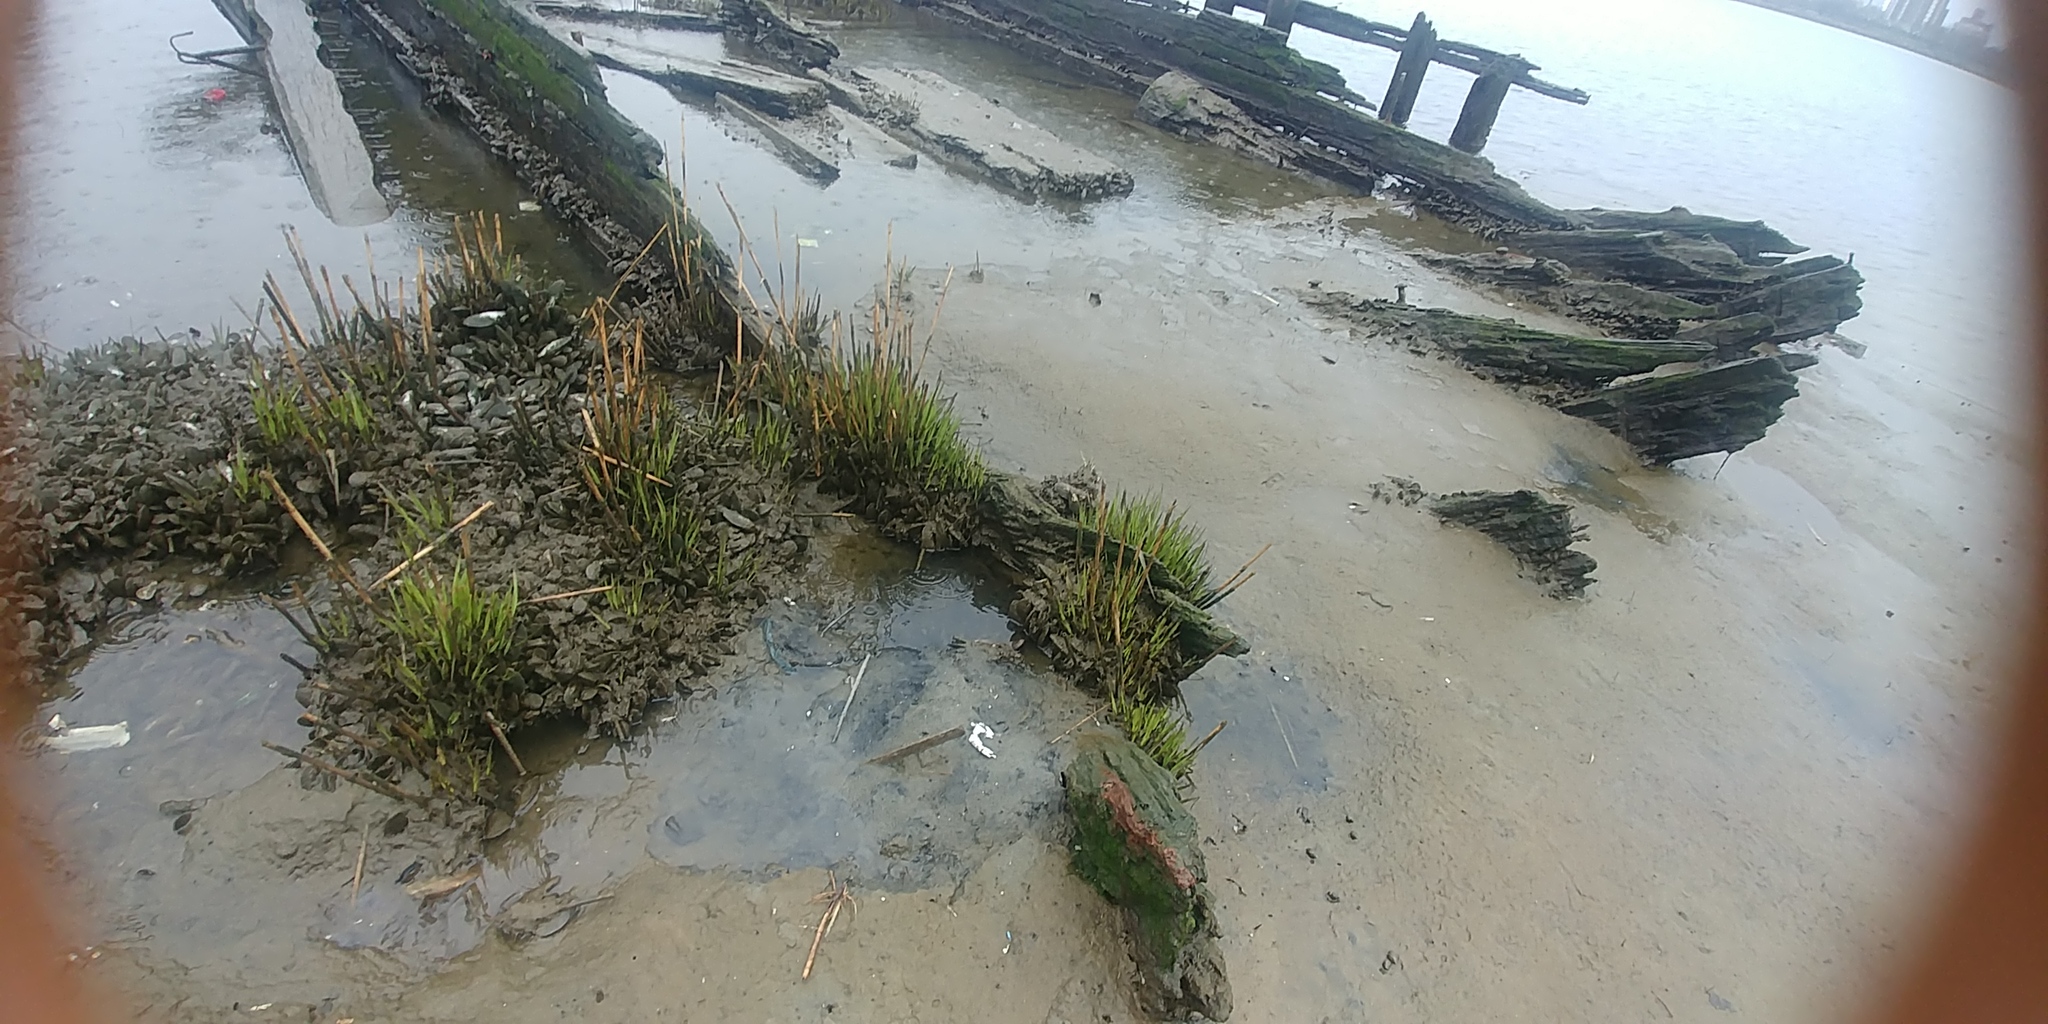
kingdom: Animalia
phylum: Mollusca
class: Bivalvia
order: Mytilida
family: Mytilidae
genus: Geukensia
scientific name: Geukensia demissa
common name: Ribbed mussel
